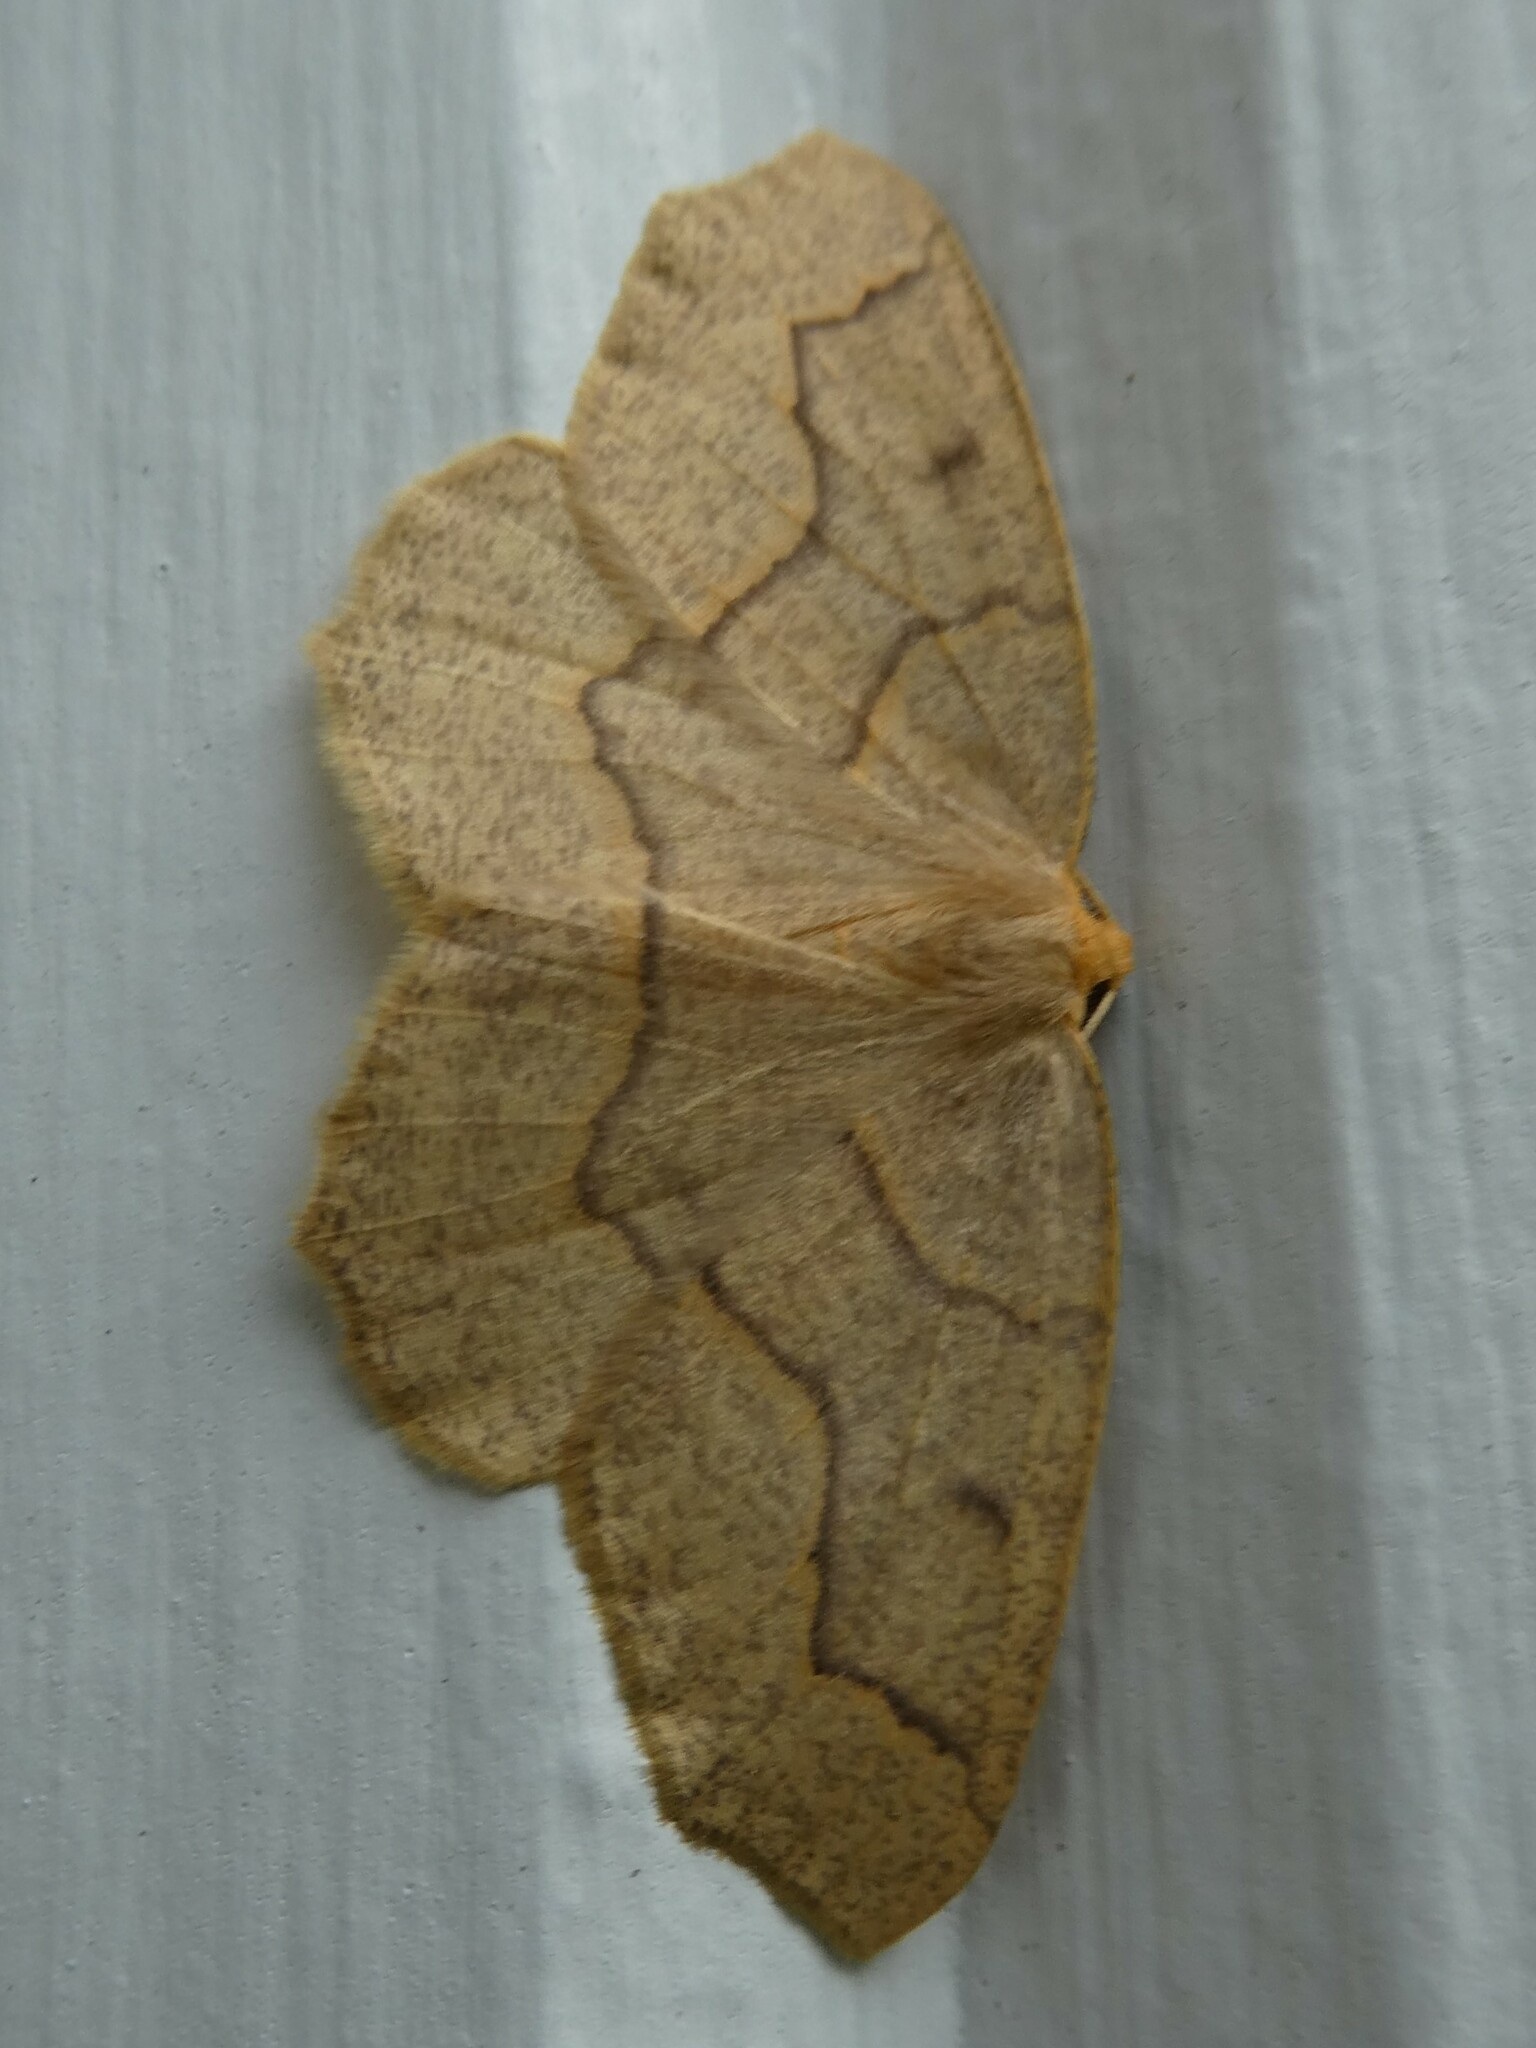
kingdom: Animalia
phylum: Arthropoda
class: Insecta
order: Lepidoptera
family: Geometridae
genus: Lambdina
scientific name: Lambdina fiscellaria
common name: Hemlock looper
